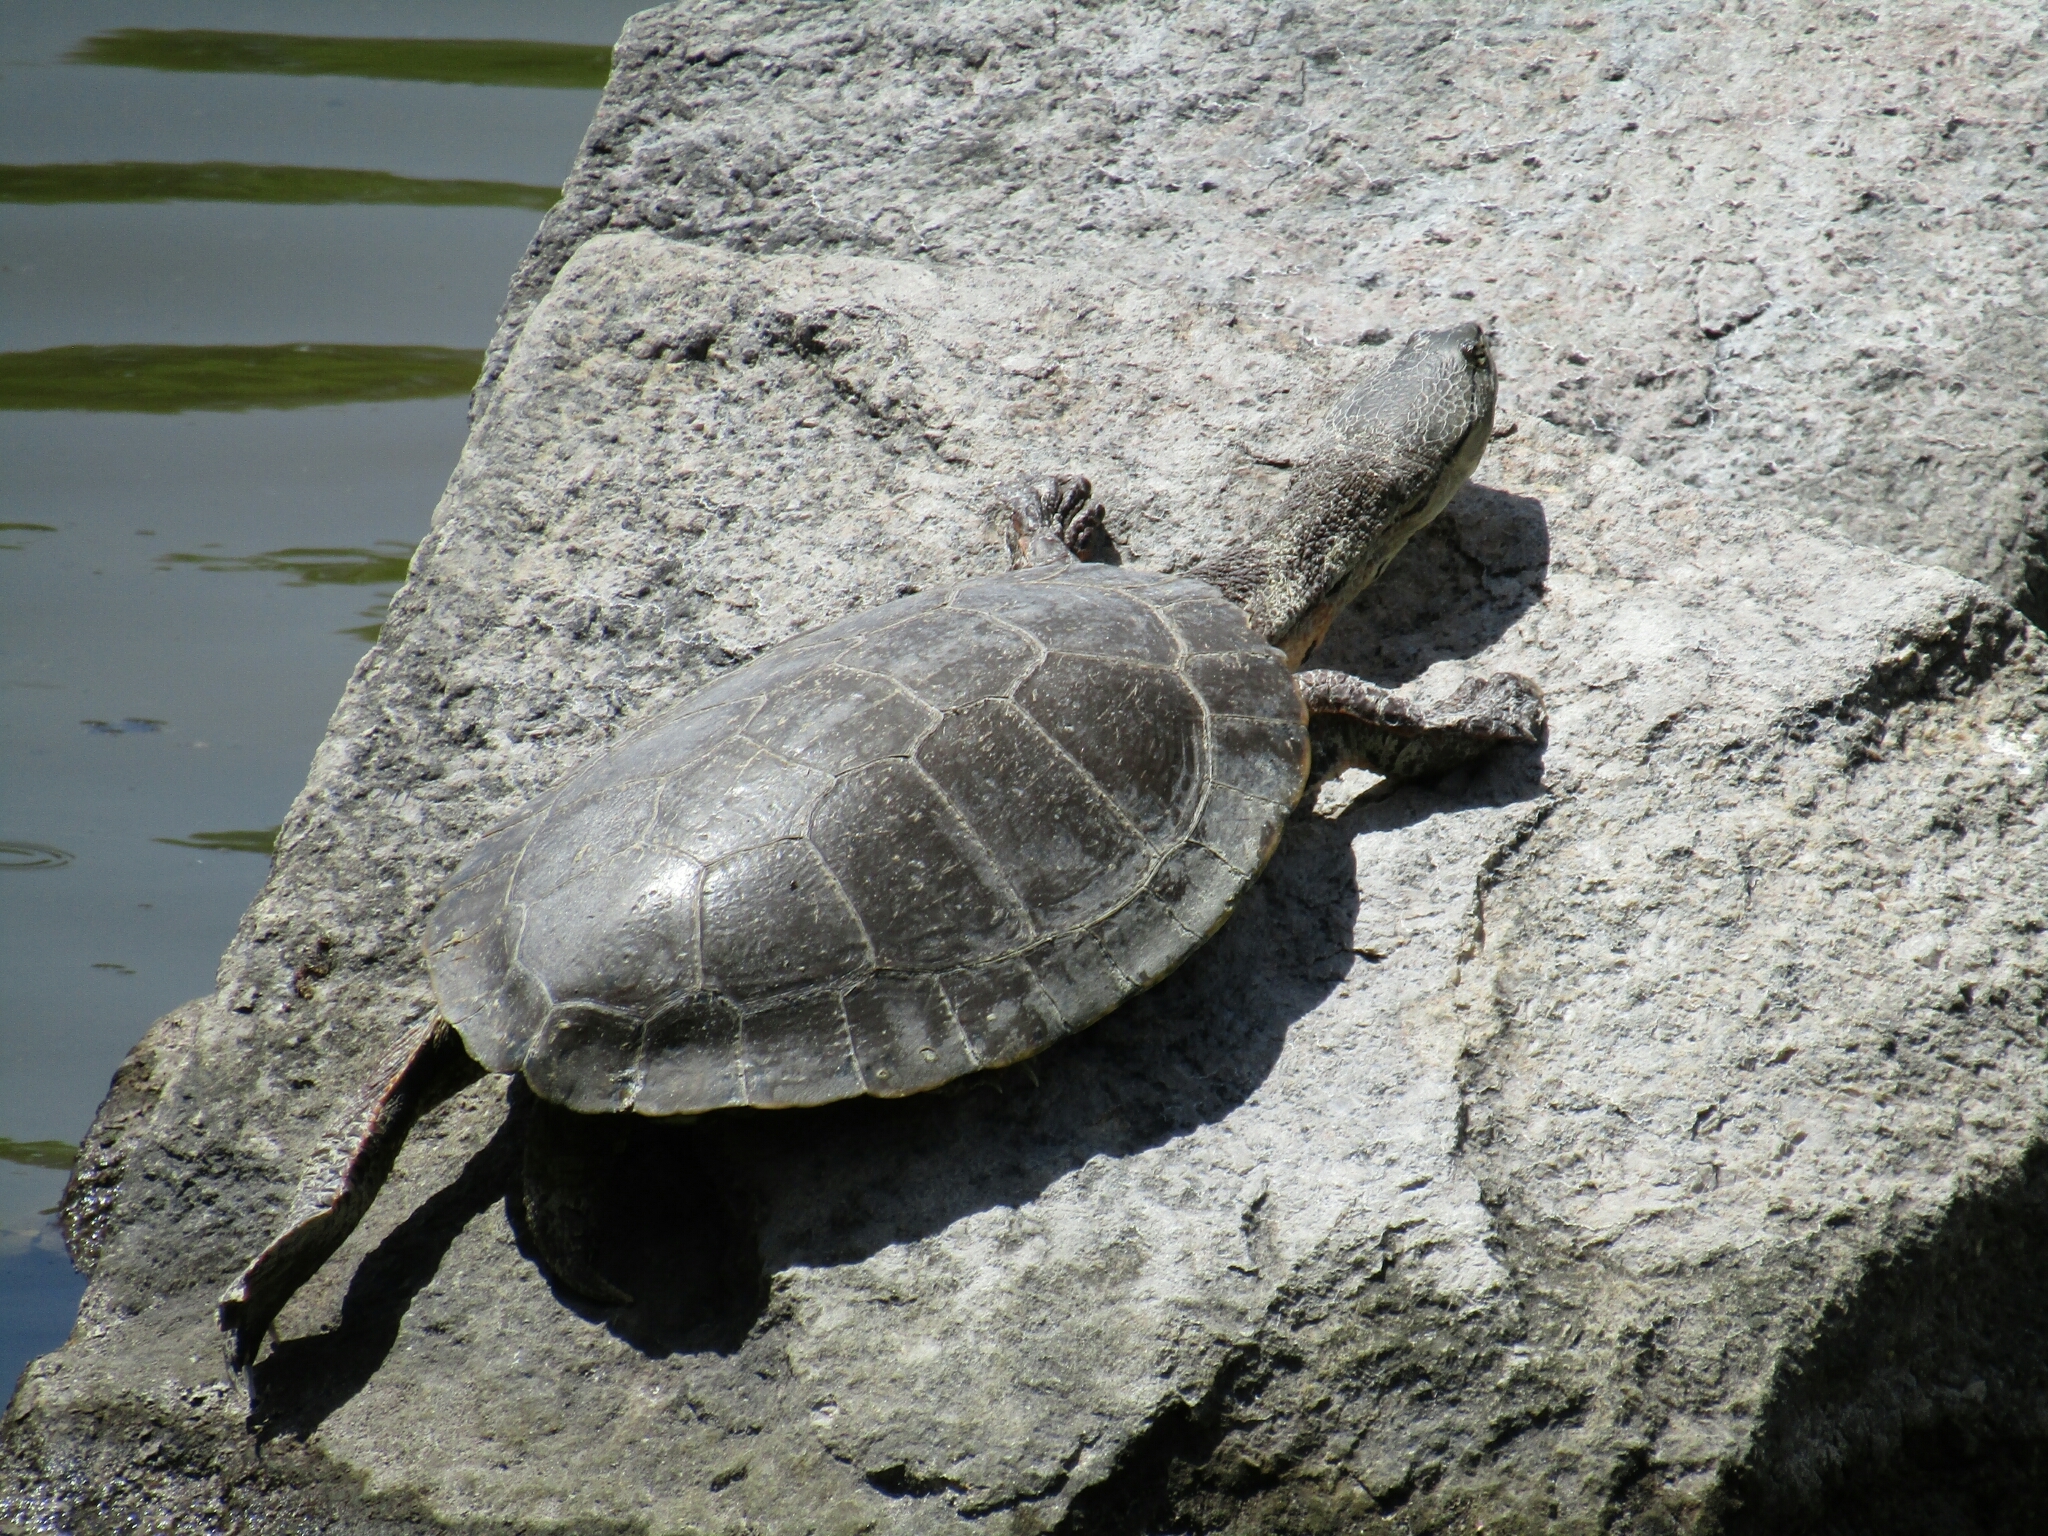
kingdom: Animalia
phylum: Chordata
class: Testudines
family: Chelidae
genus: Phrynops
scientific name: Phrynops hilarii
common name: Side-necked turtle of saint hillaire
